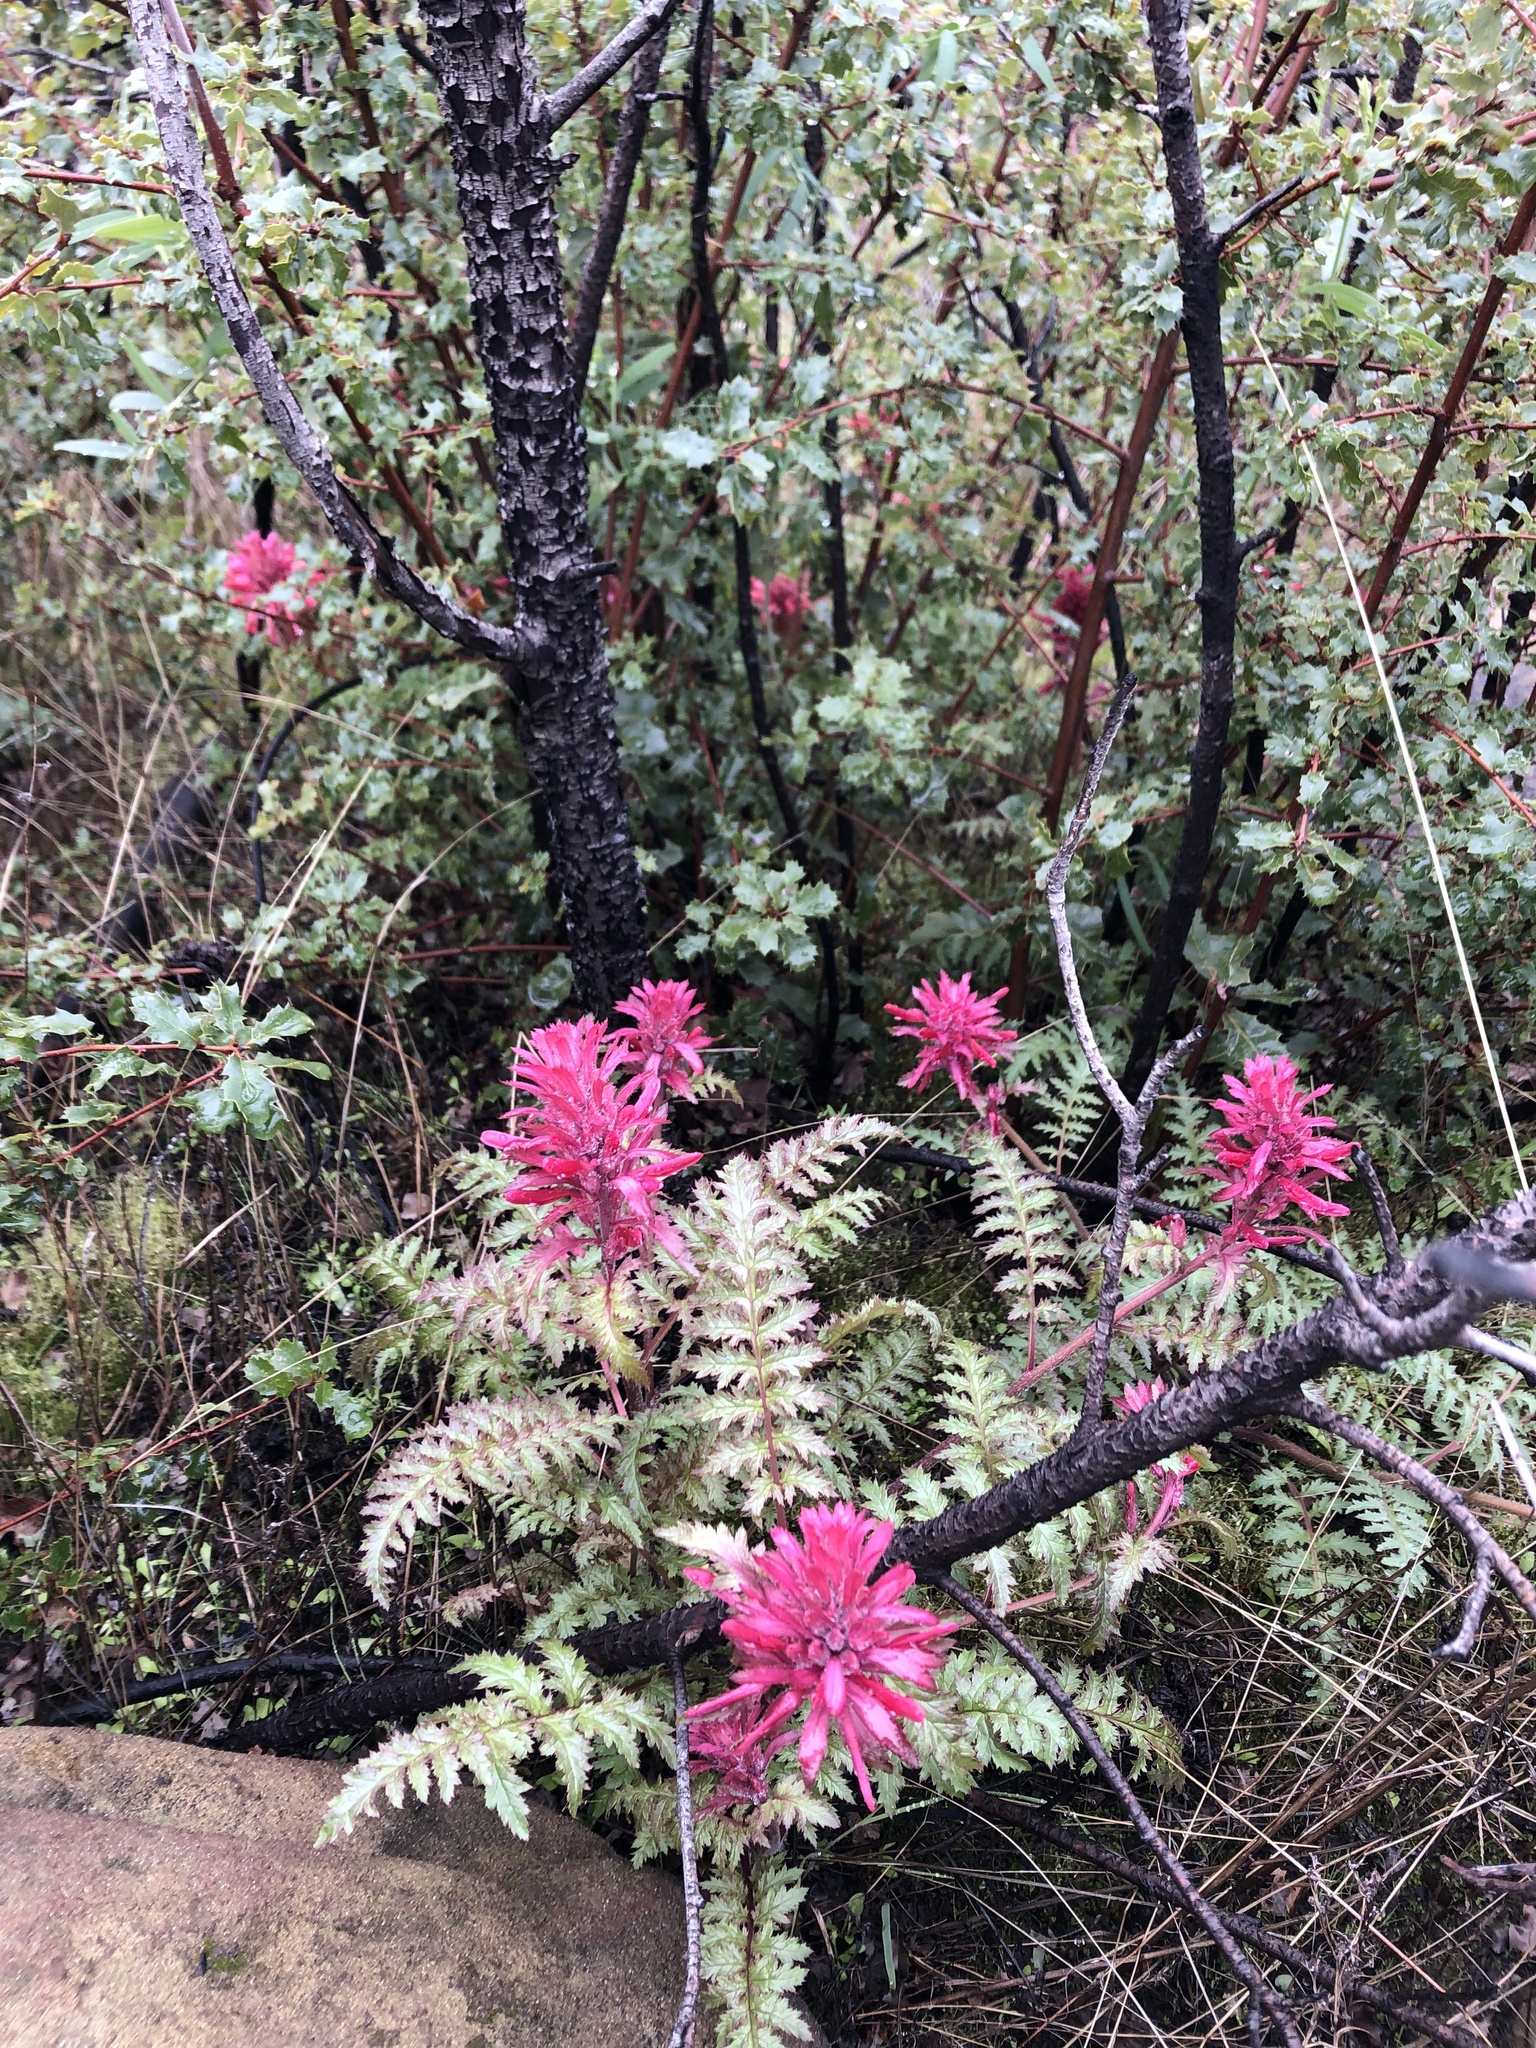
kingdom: Plantae
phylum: Tracheophyta
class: Magnoliopsida
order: Lamiales
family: Orobanchaceae
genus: Pedicularis
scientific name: Pedicularis densiflora
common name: Indian warrior
